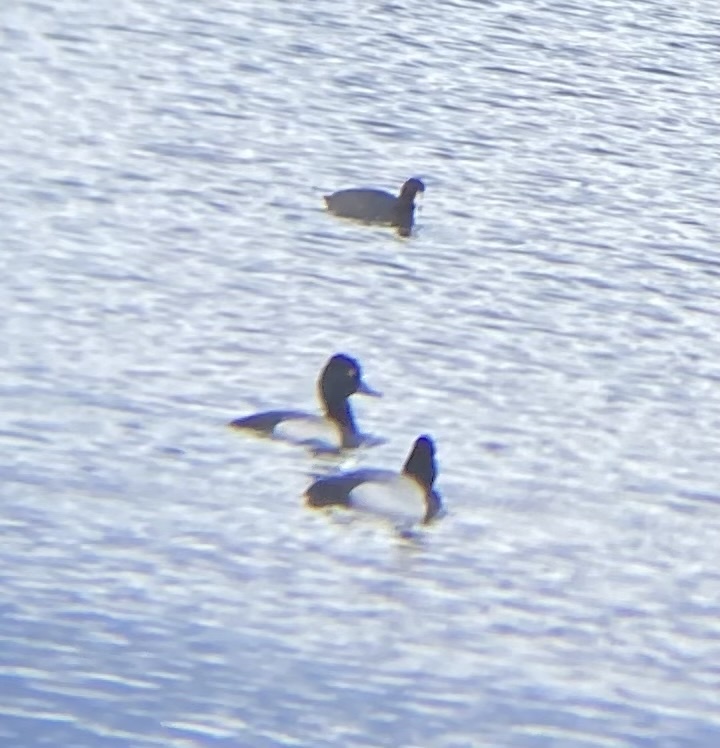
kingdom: Animalia
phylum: Chordata
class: Aves
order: Anseriformes
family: Anatidae
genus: Aythya
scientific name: Aythya affinis
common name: Lesser scaup
